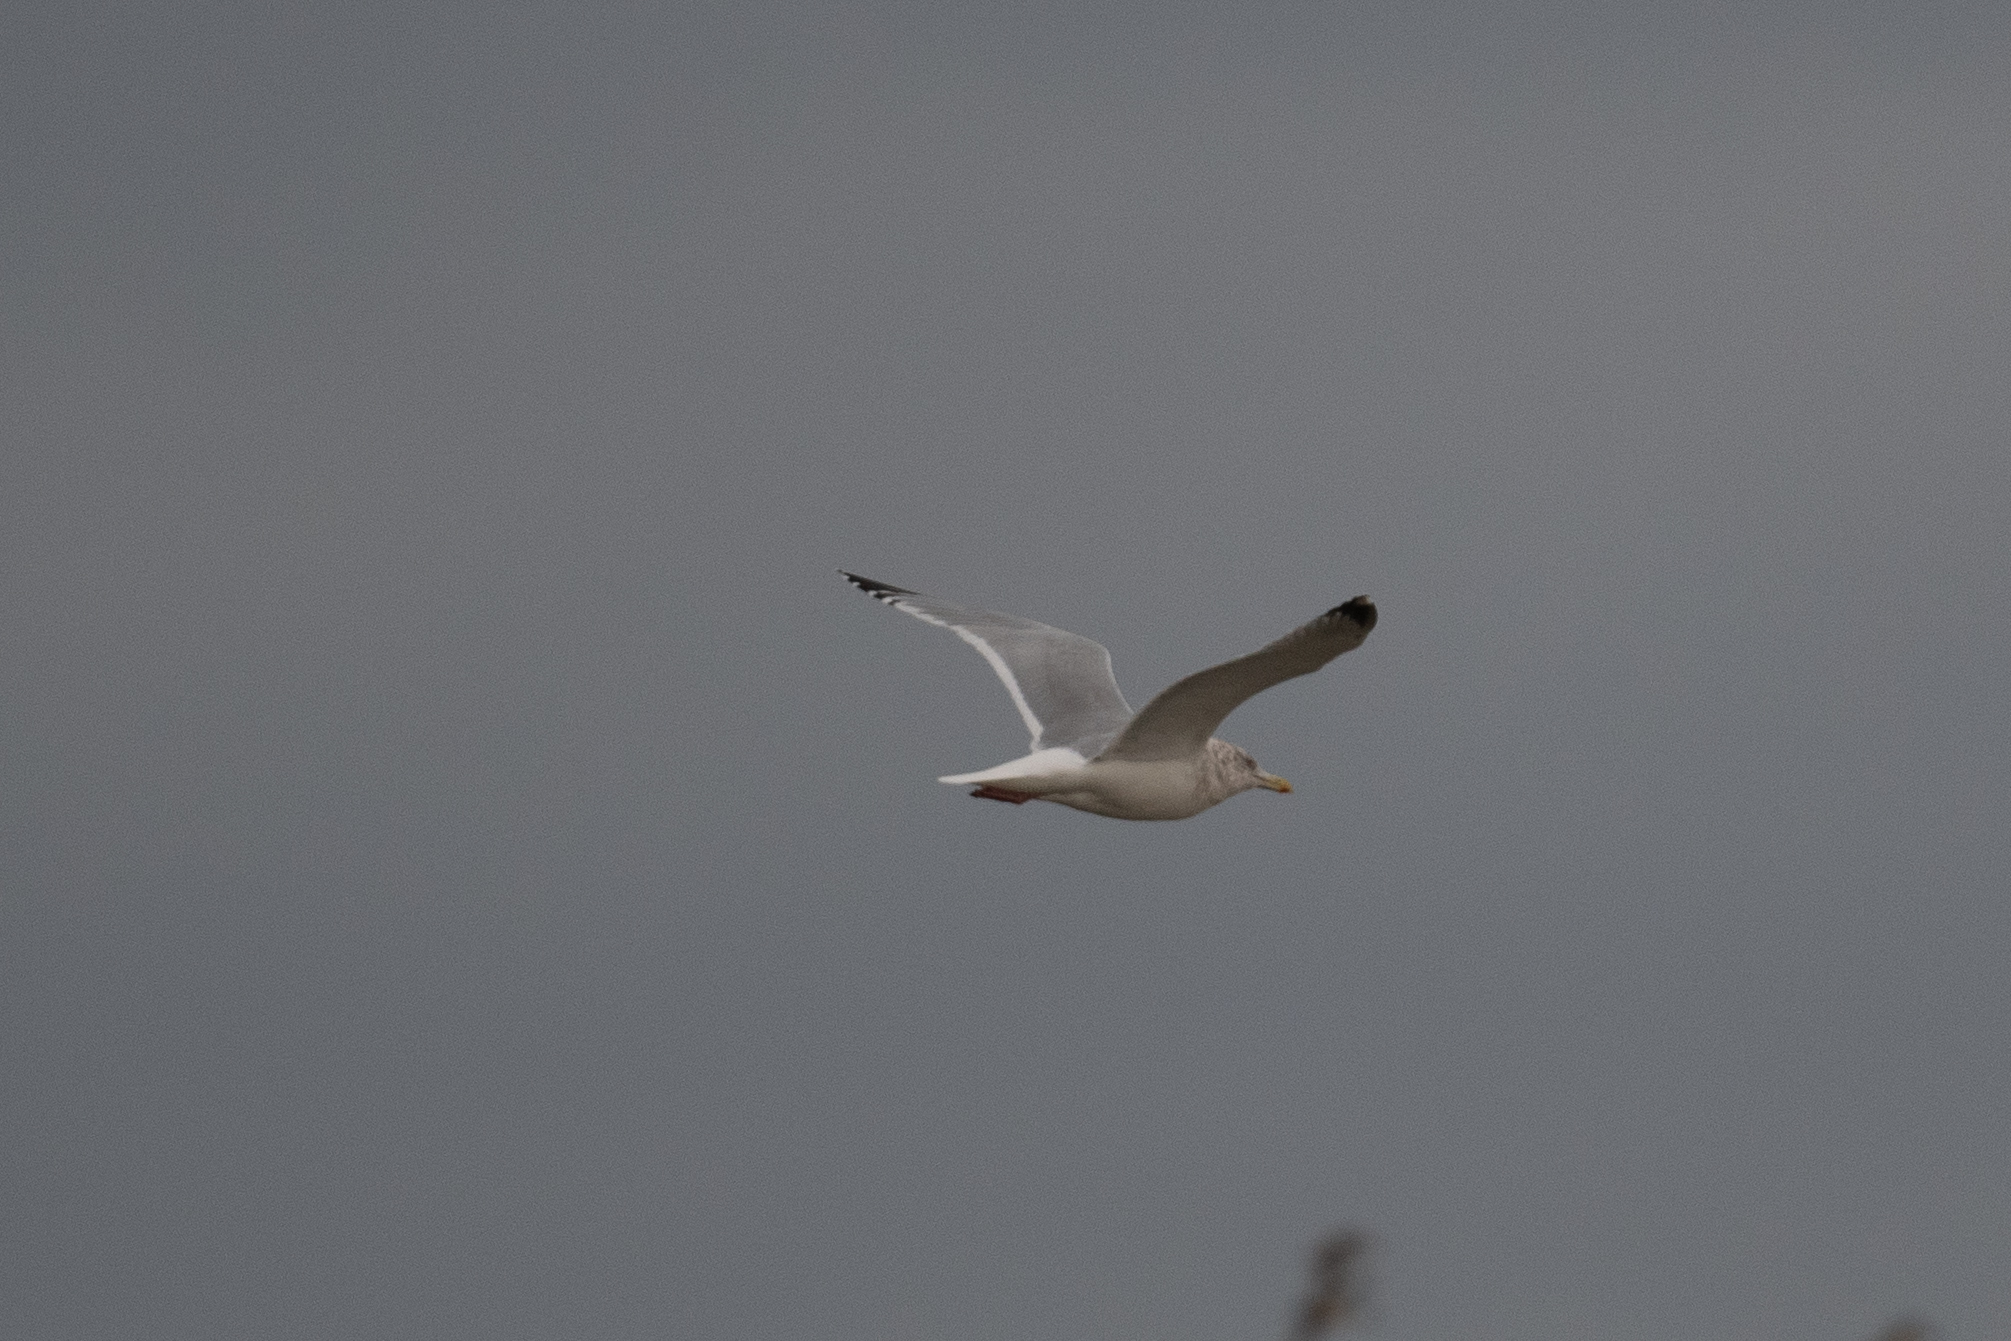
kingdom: Animalia
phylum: Chordata
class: Aves
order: Charadriiformes
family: Laridae
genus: Larus
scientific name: Larus argentatus
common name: Herring gull
